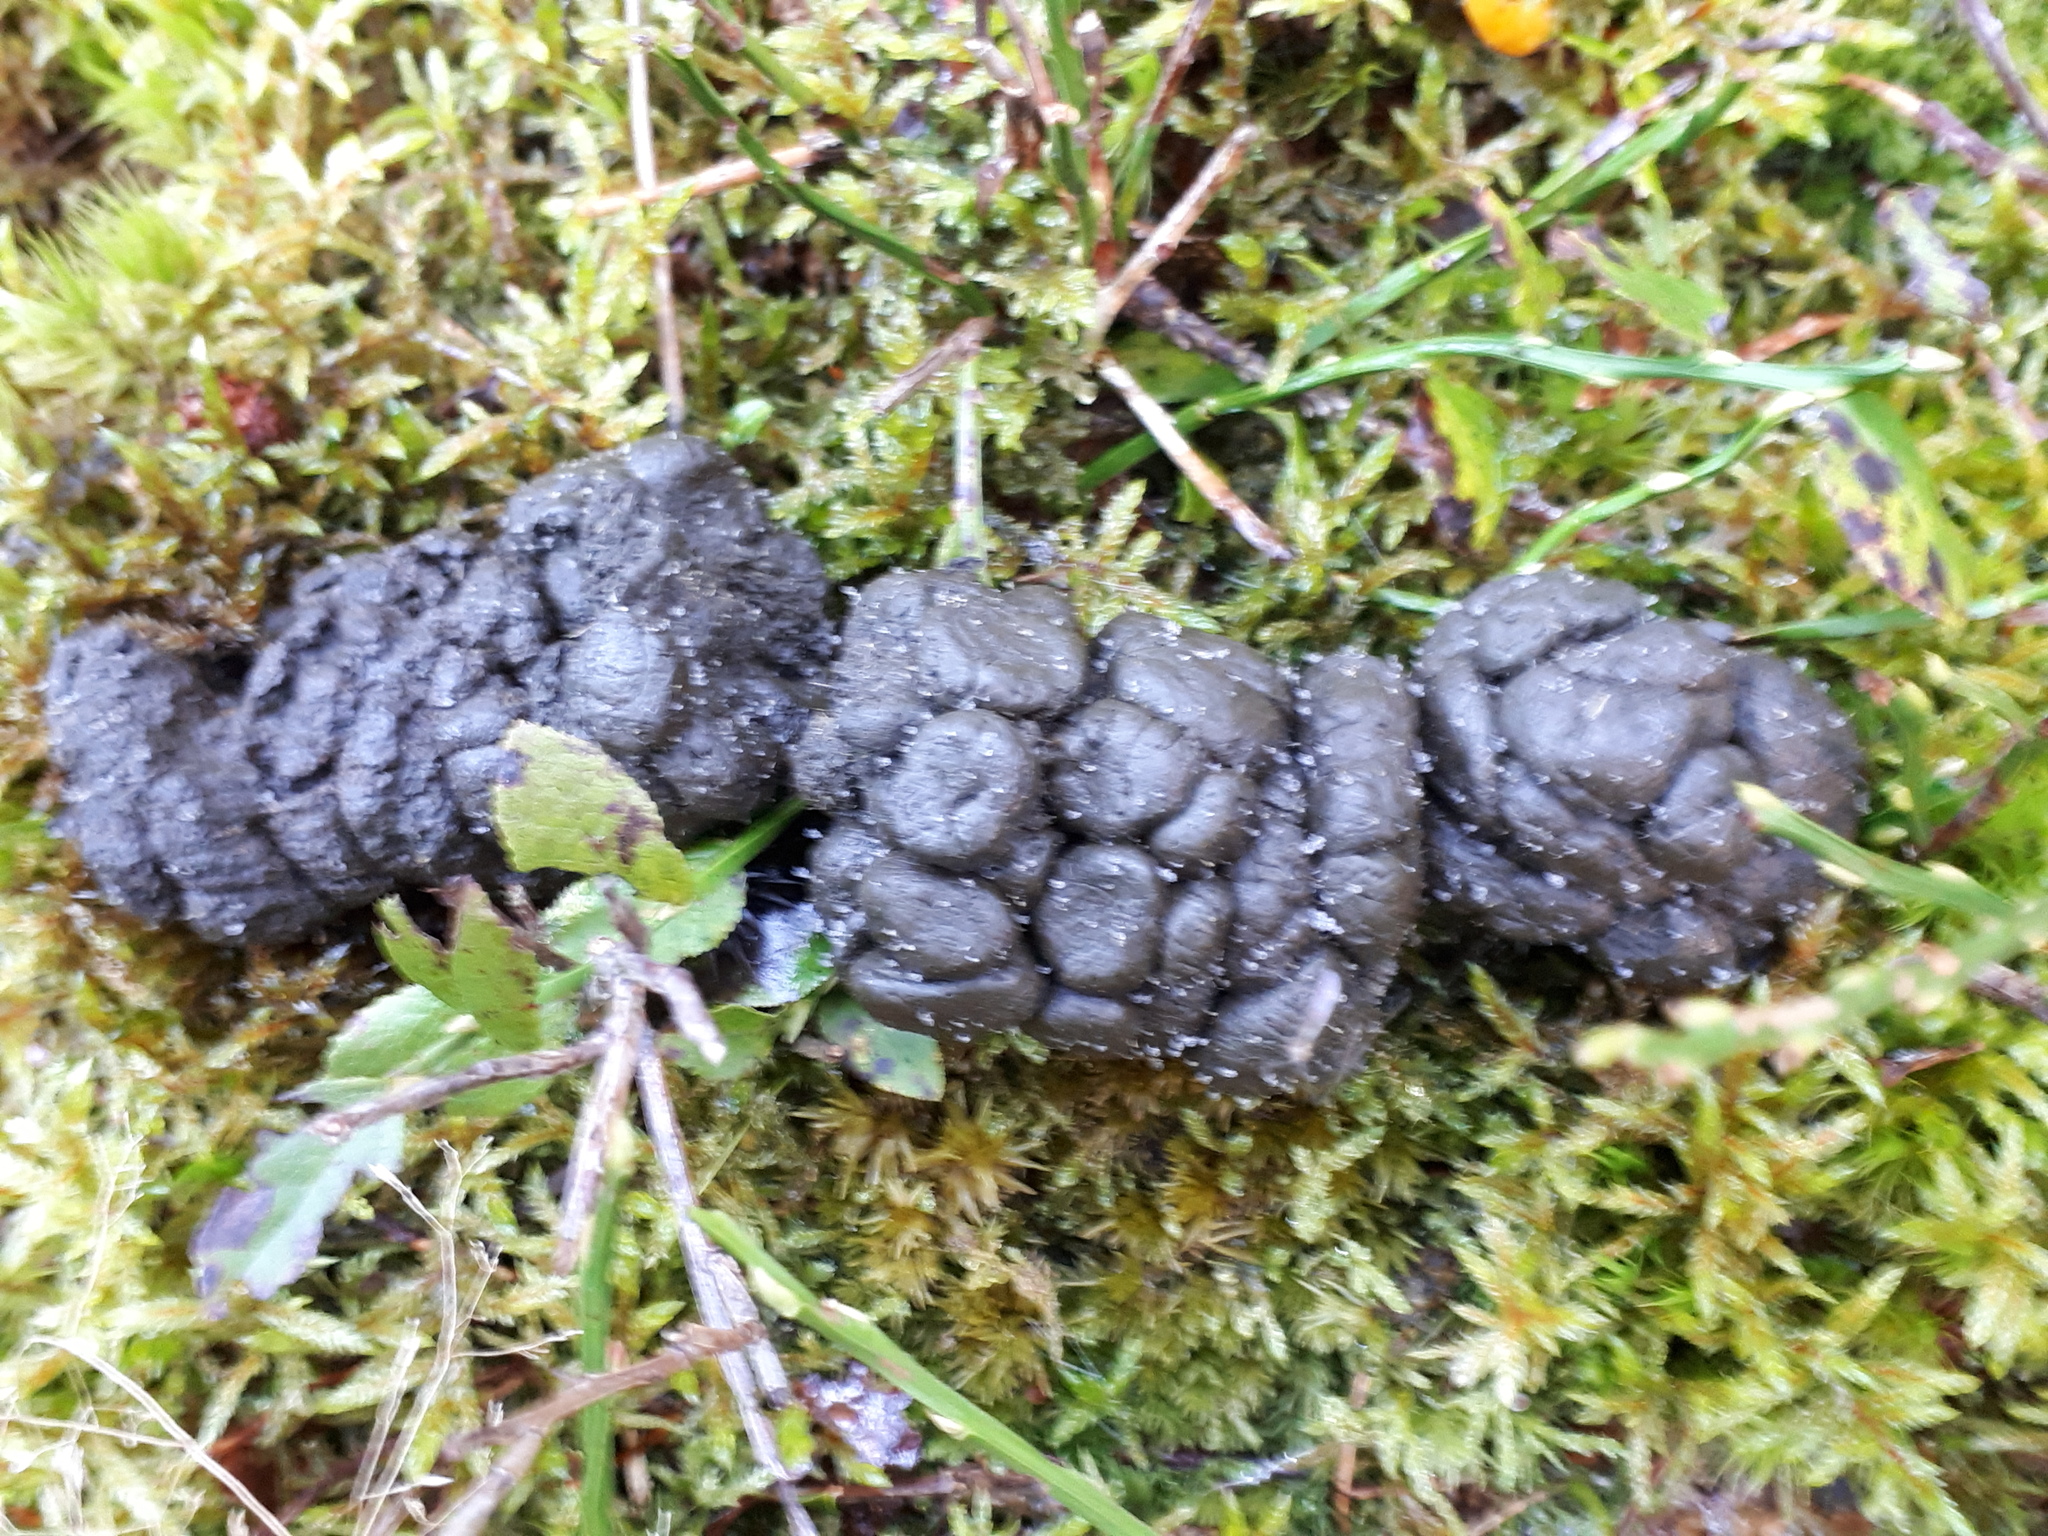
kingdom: Fungi
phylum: Mucoromycota
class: Mucoromycetes
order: Mucorales
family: Pilobolaceae
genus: Pilobolus
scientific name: Pilobolus
